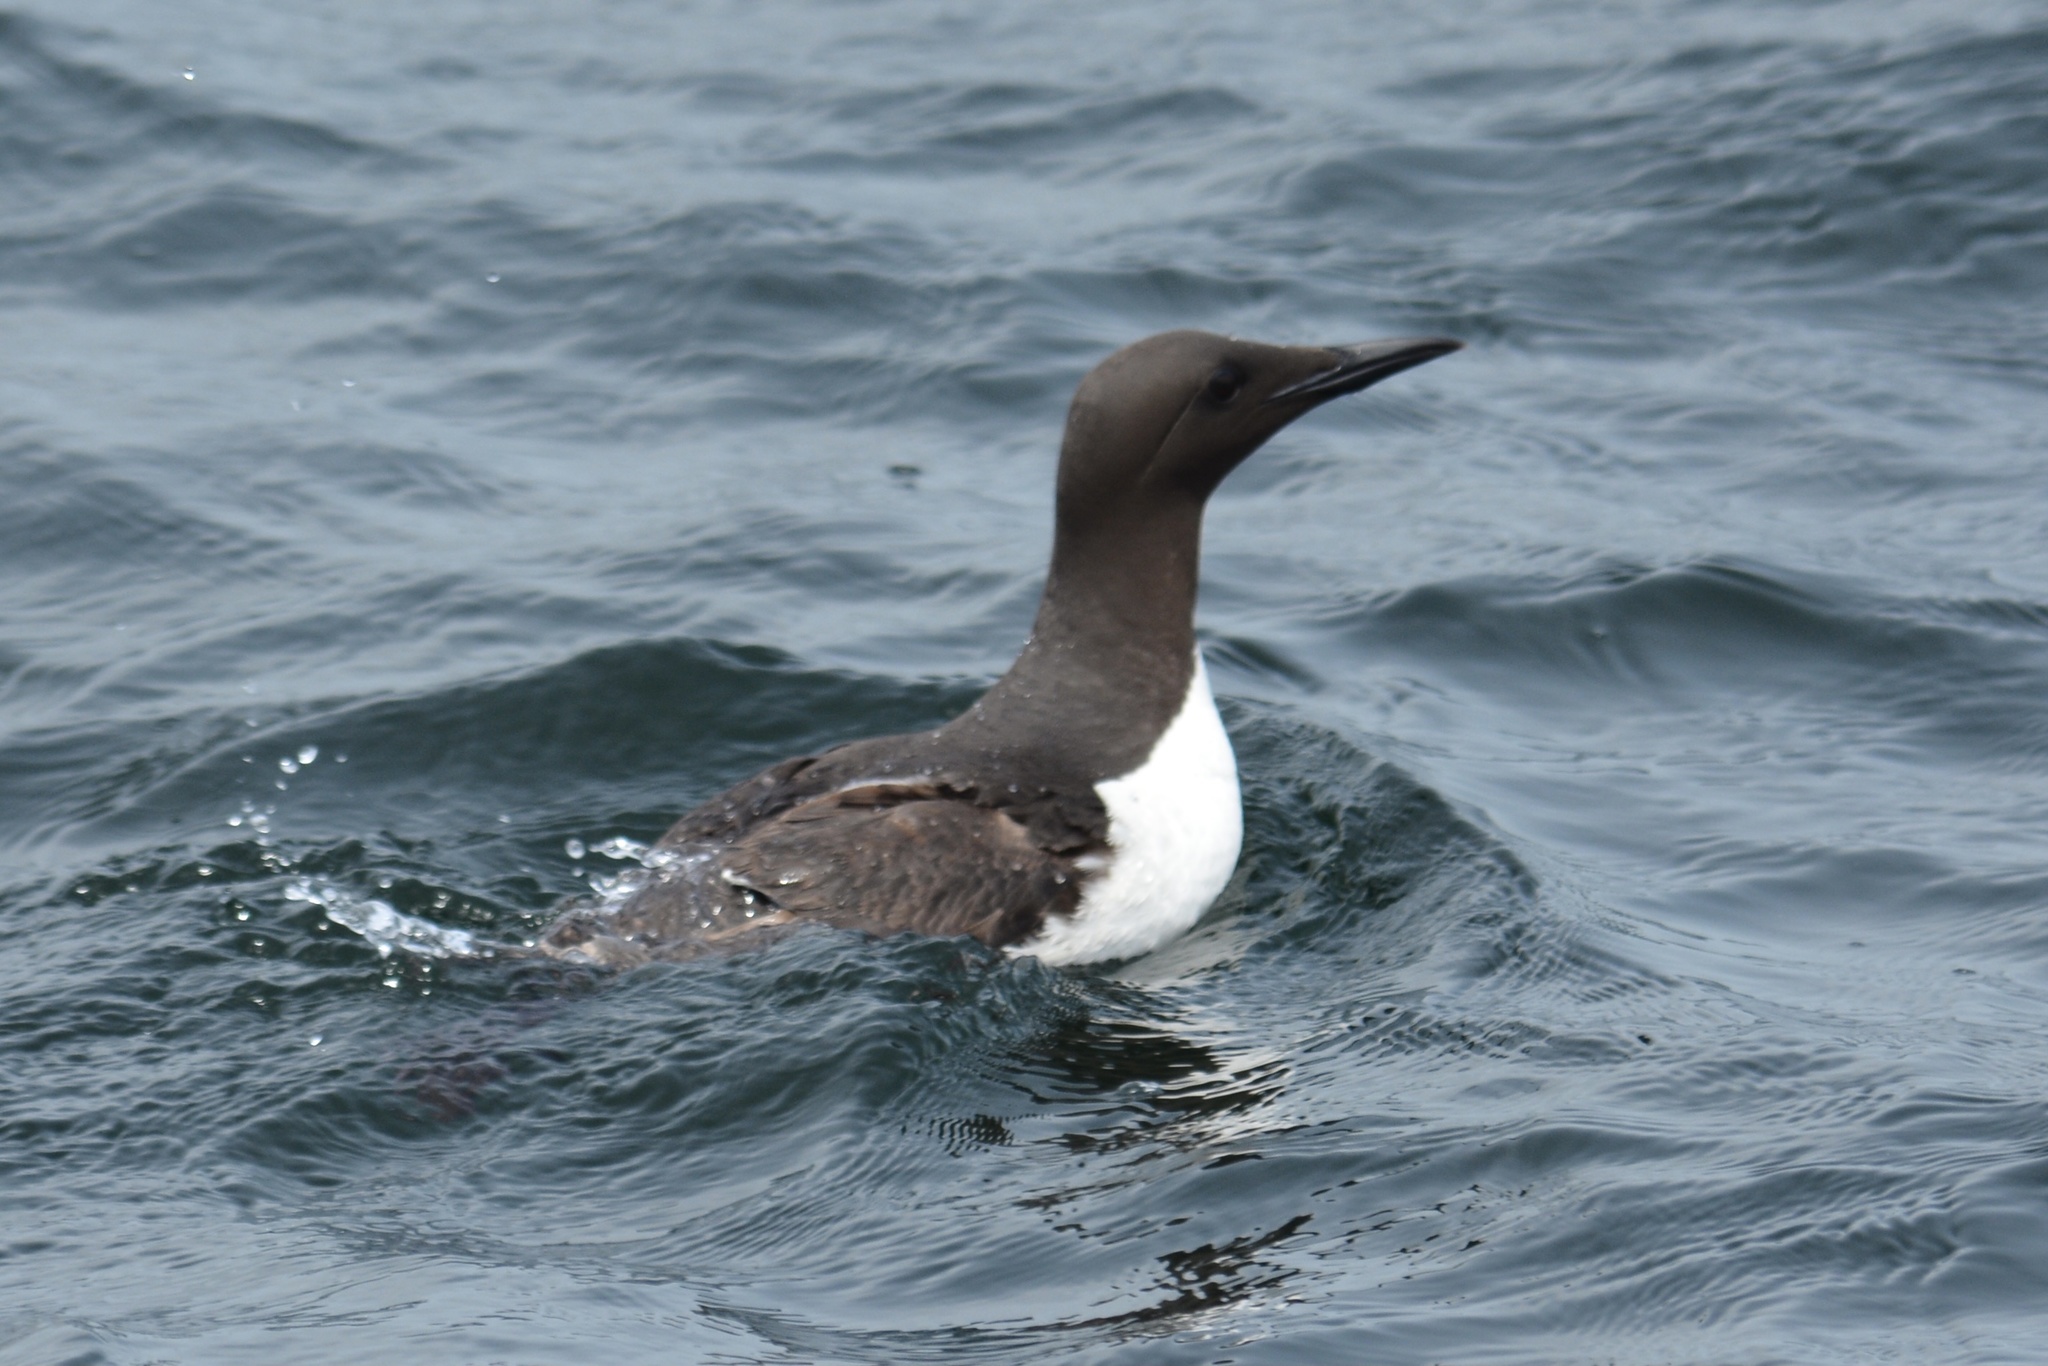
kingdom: Animalia
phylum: Chordata
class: Aves
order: Charadriiformes
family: Alcidae
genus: Uria
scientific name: Uria aalge
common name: Common murre
